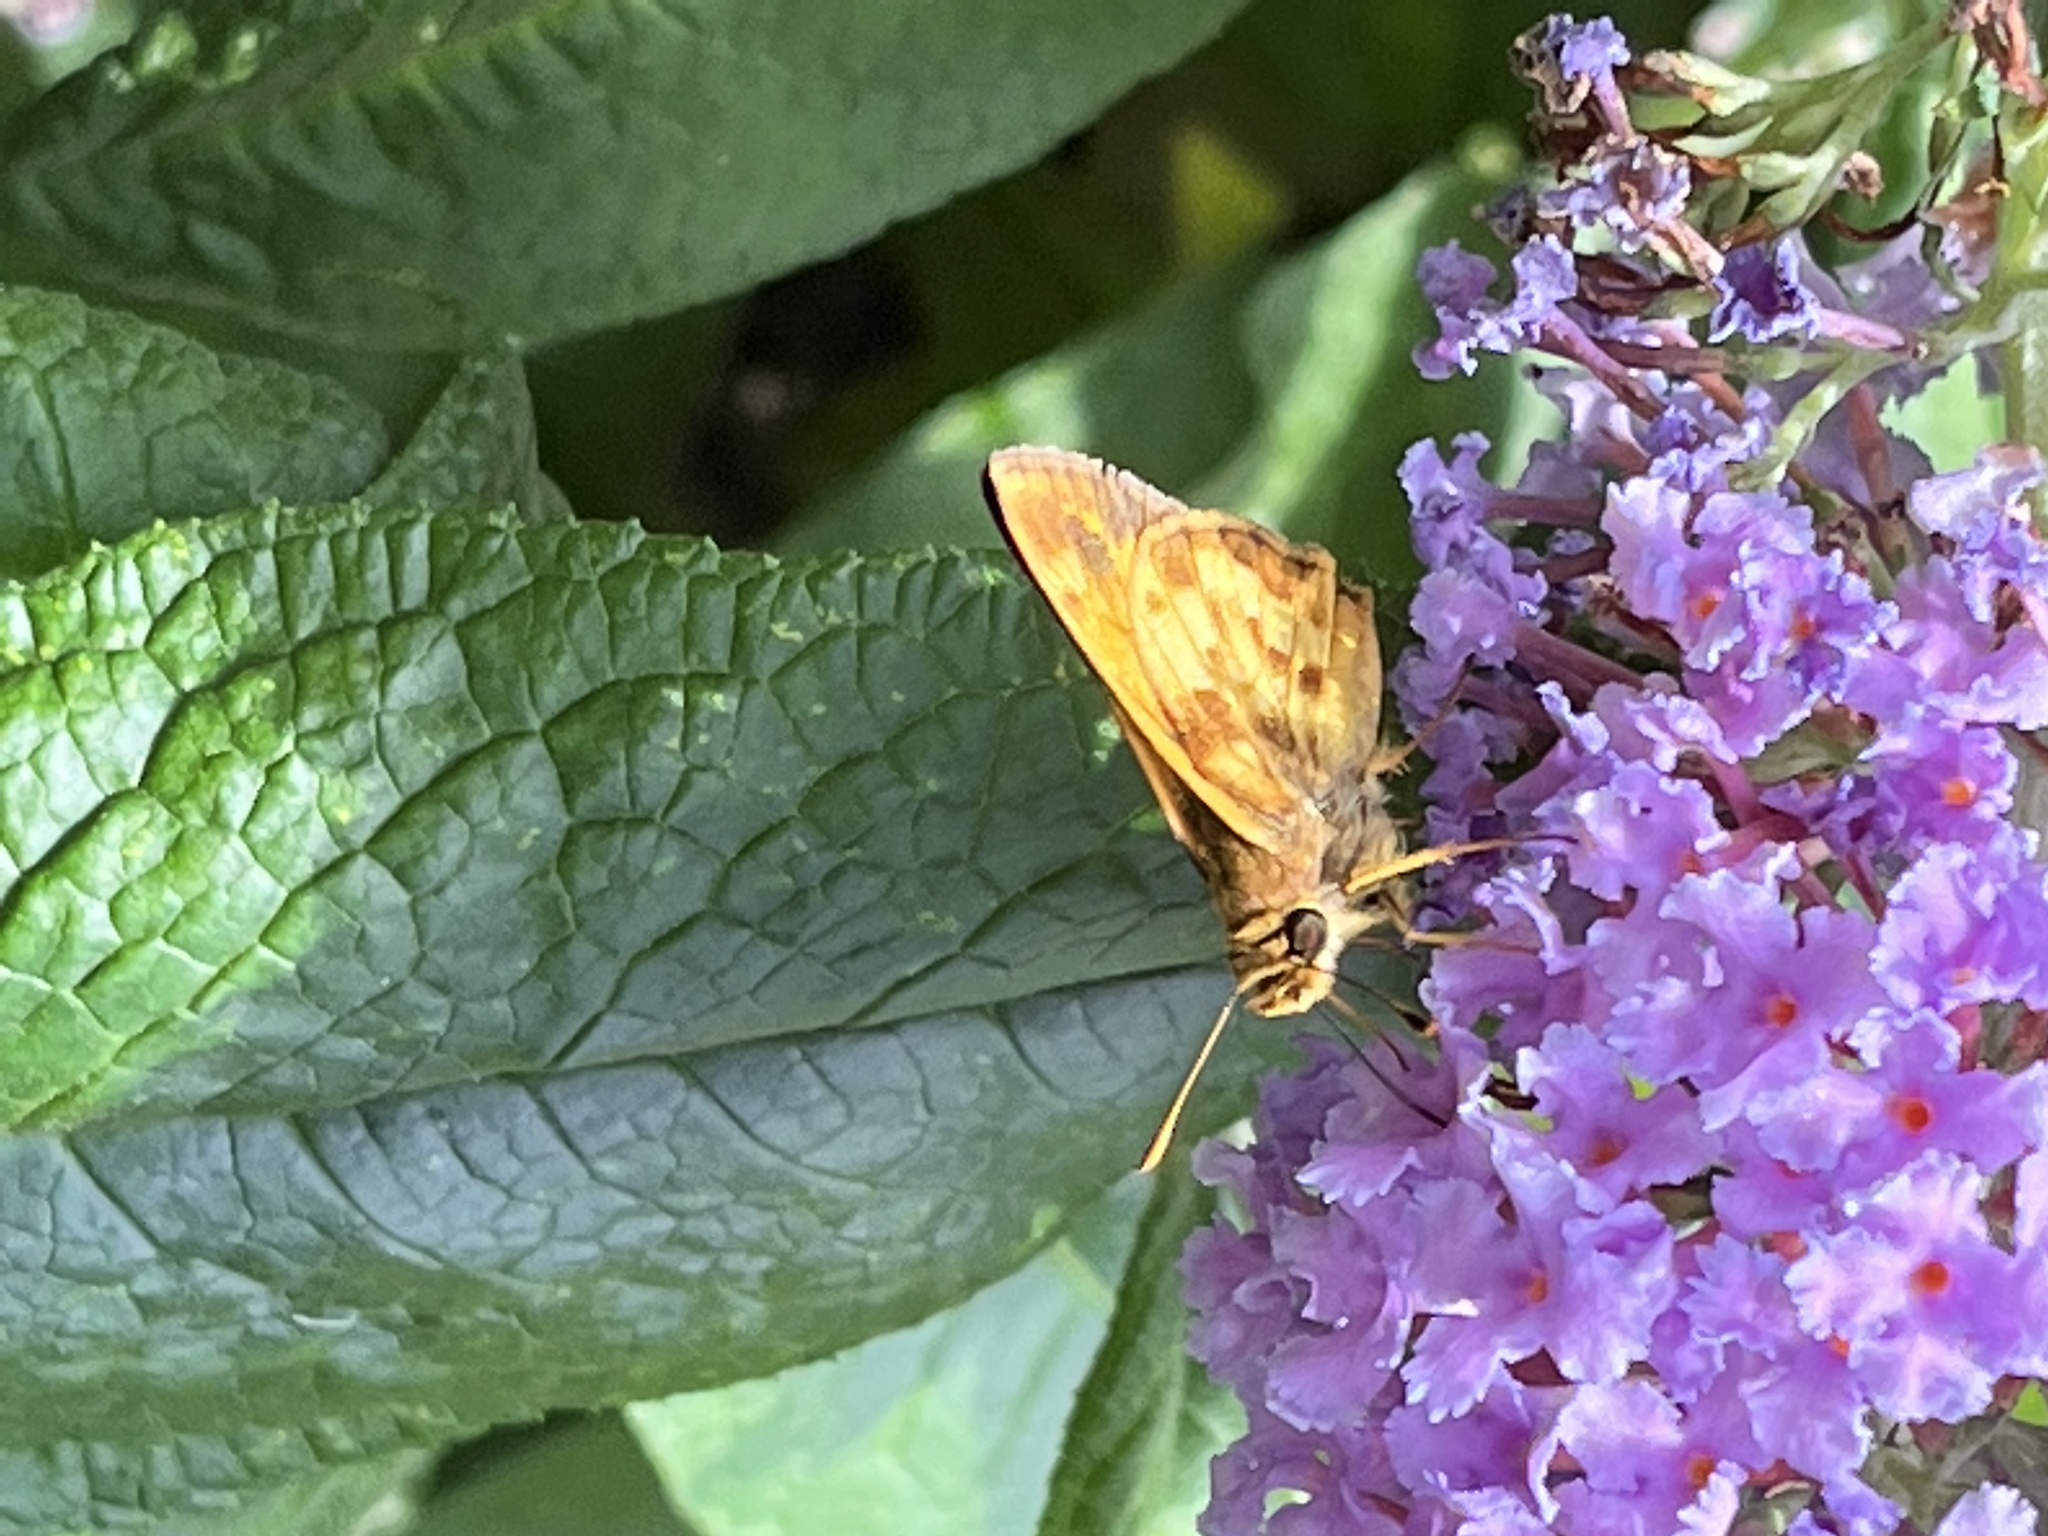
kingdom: Animalia
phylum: Arthropoda
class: Insecta
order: Lepidoptera
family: Hesperiidae
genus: Lon
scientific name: Lon zabulon
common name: Zabulon skipper
